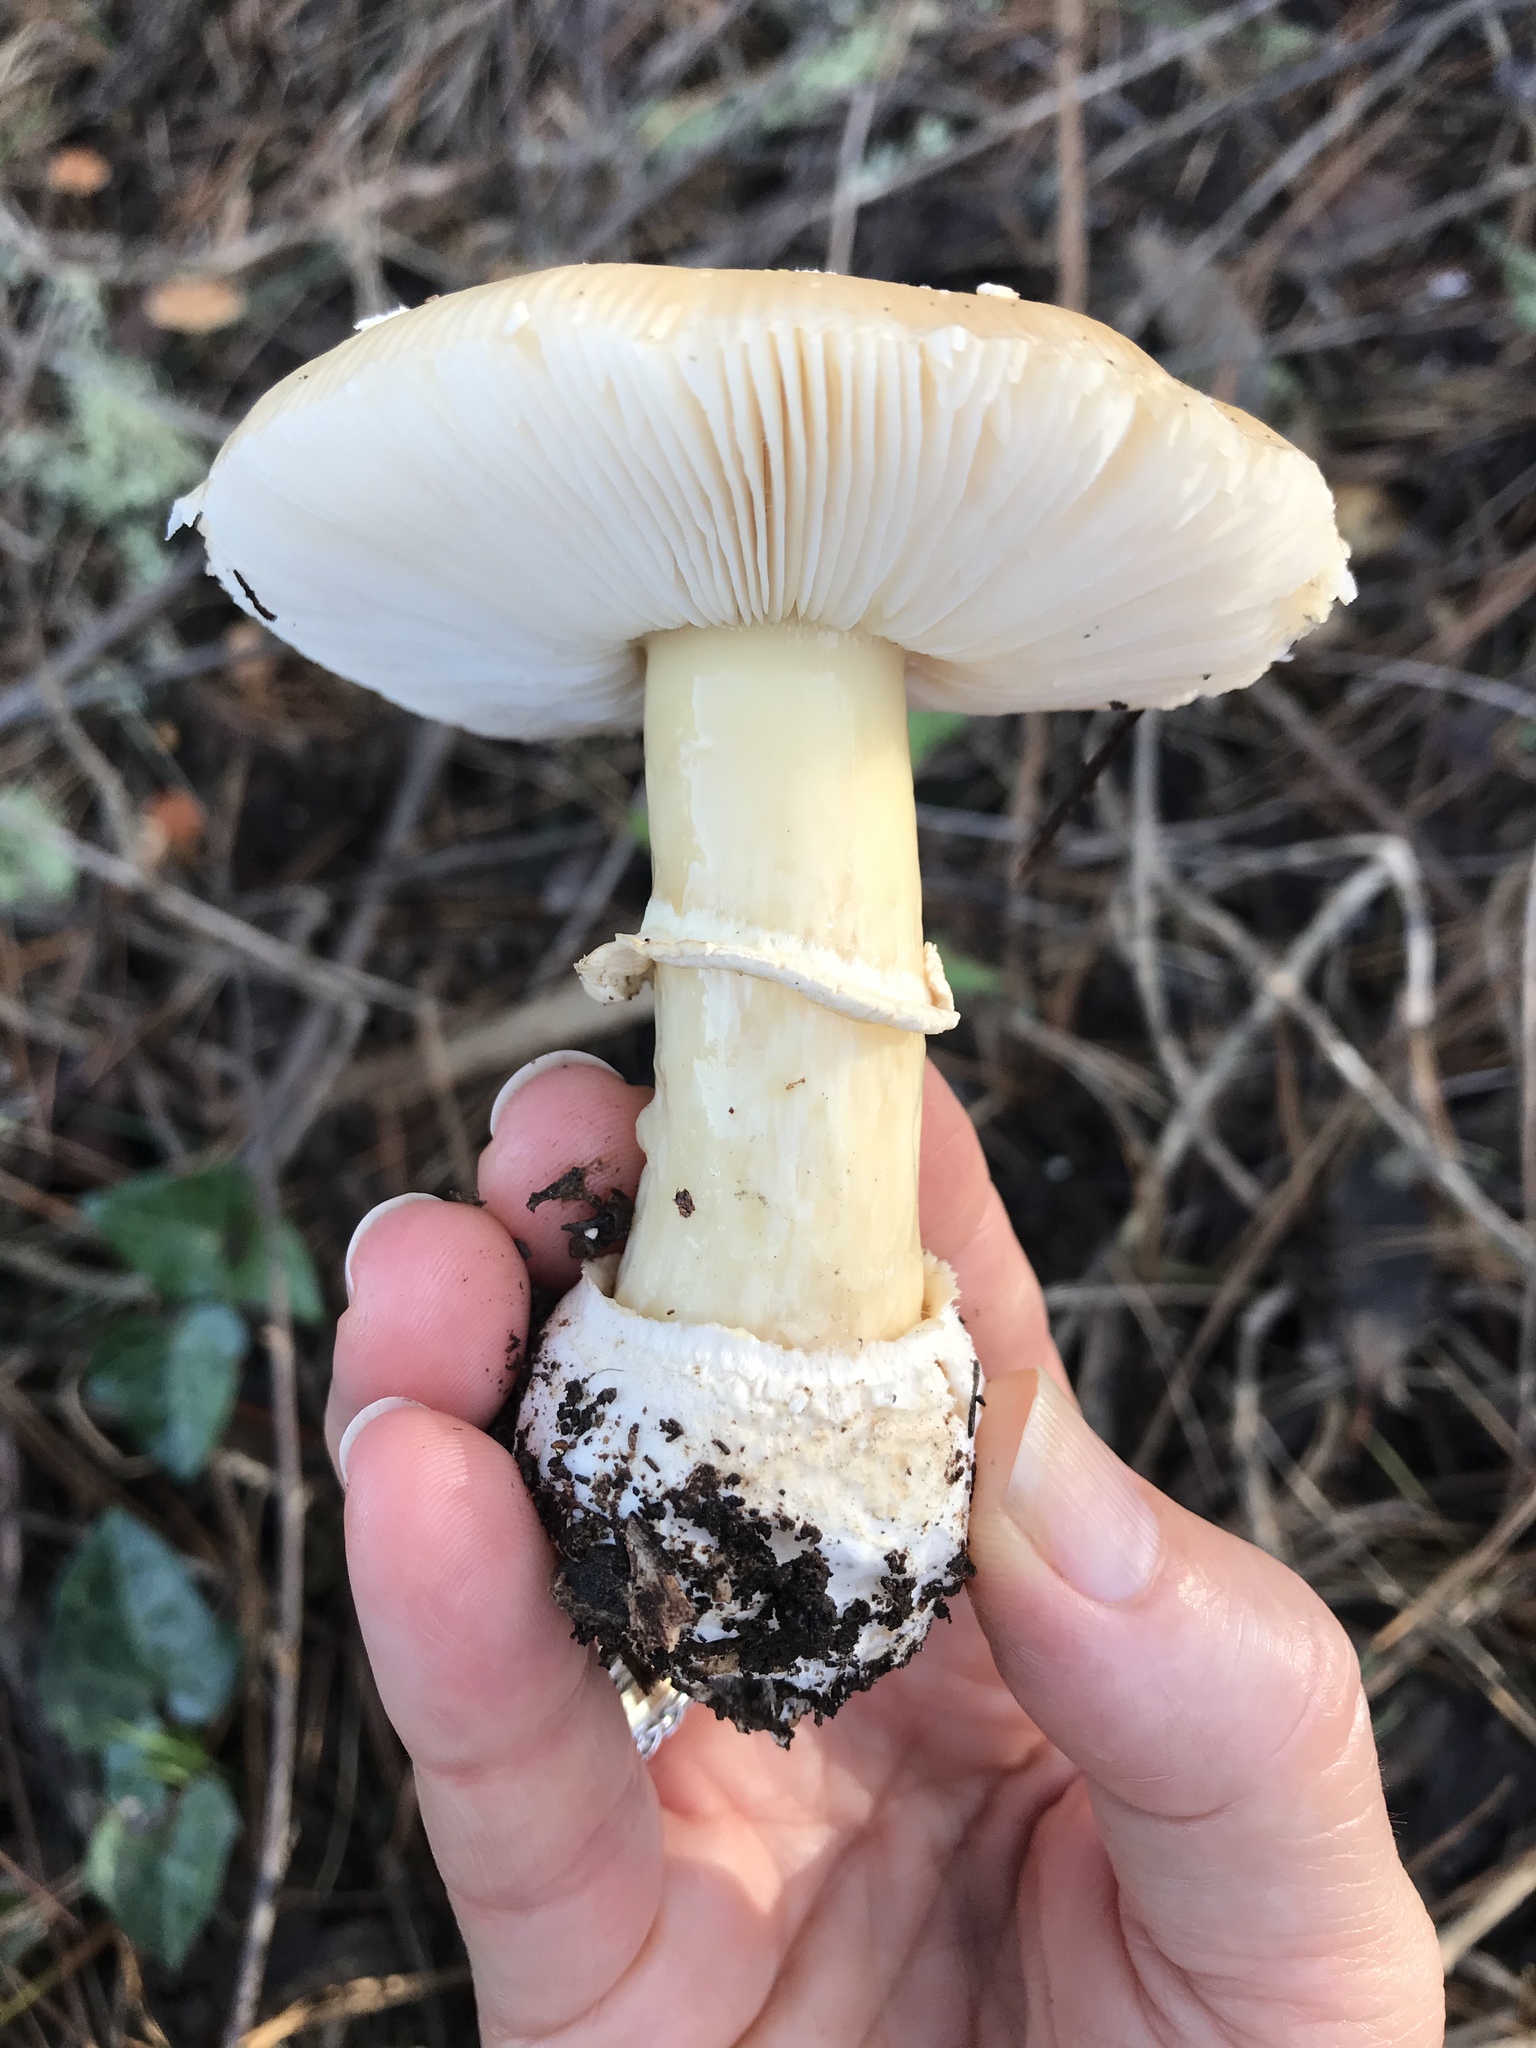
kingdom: Fungi
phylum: Basidiomycota
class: Agaricomycetes
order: Agaricales
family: Amanitaceae
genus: Amanita
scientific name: Amanita pantherina
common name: Panthercap
